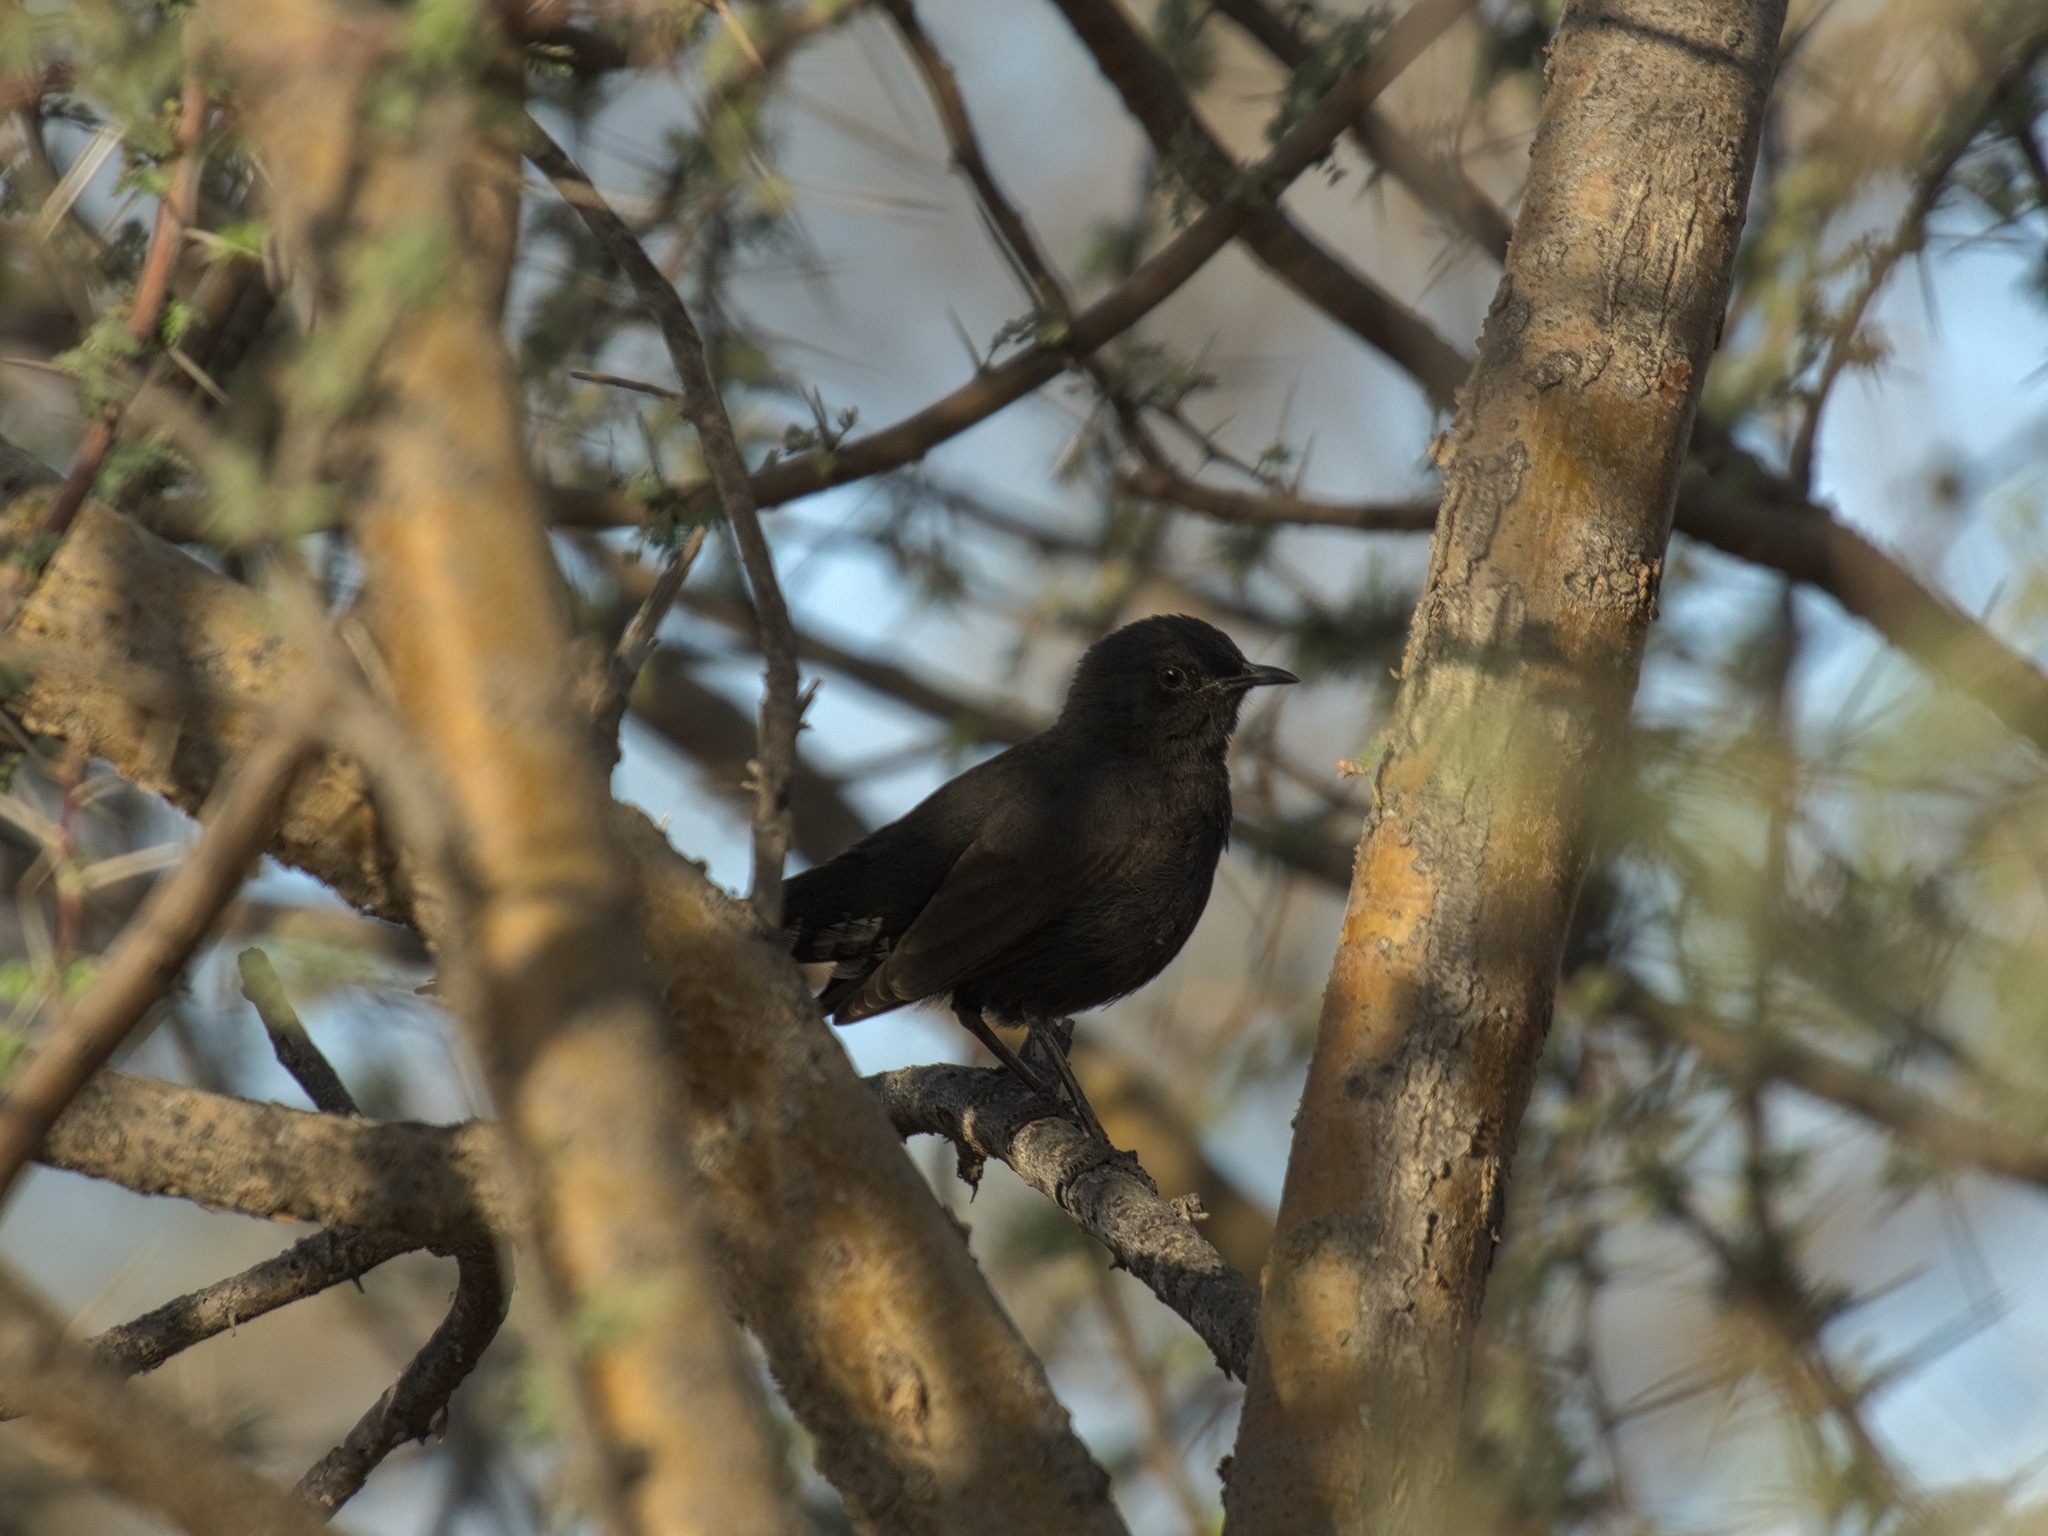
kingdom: Animalia
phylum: Chordata
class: Aves
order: Passeriformes
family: Muscicapidae
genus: Cercotrichas
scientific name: Cercotrichas podobe
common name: Black scrub robin
